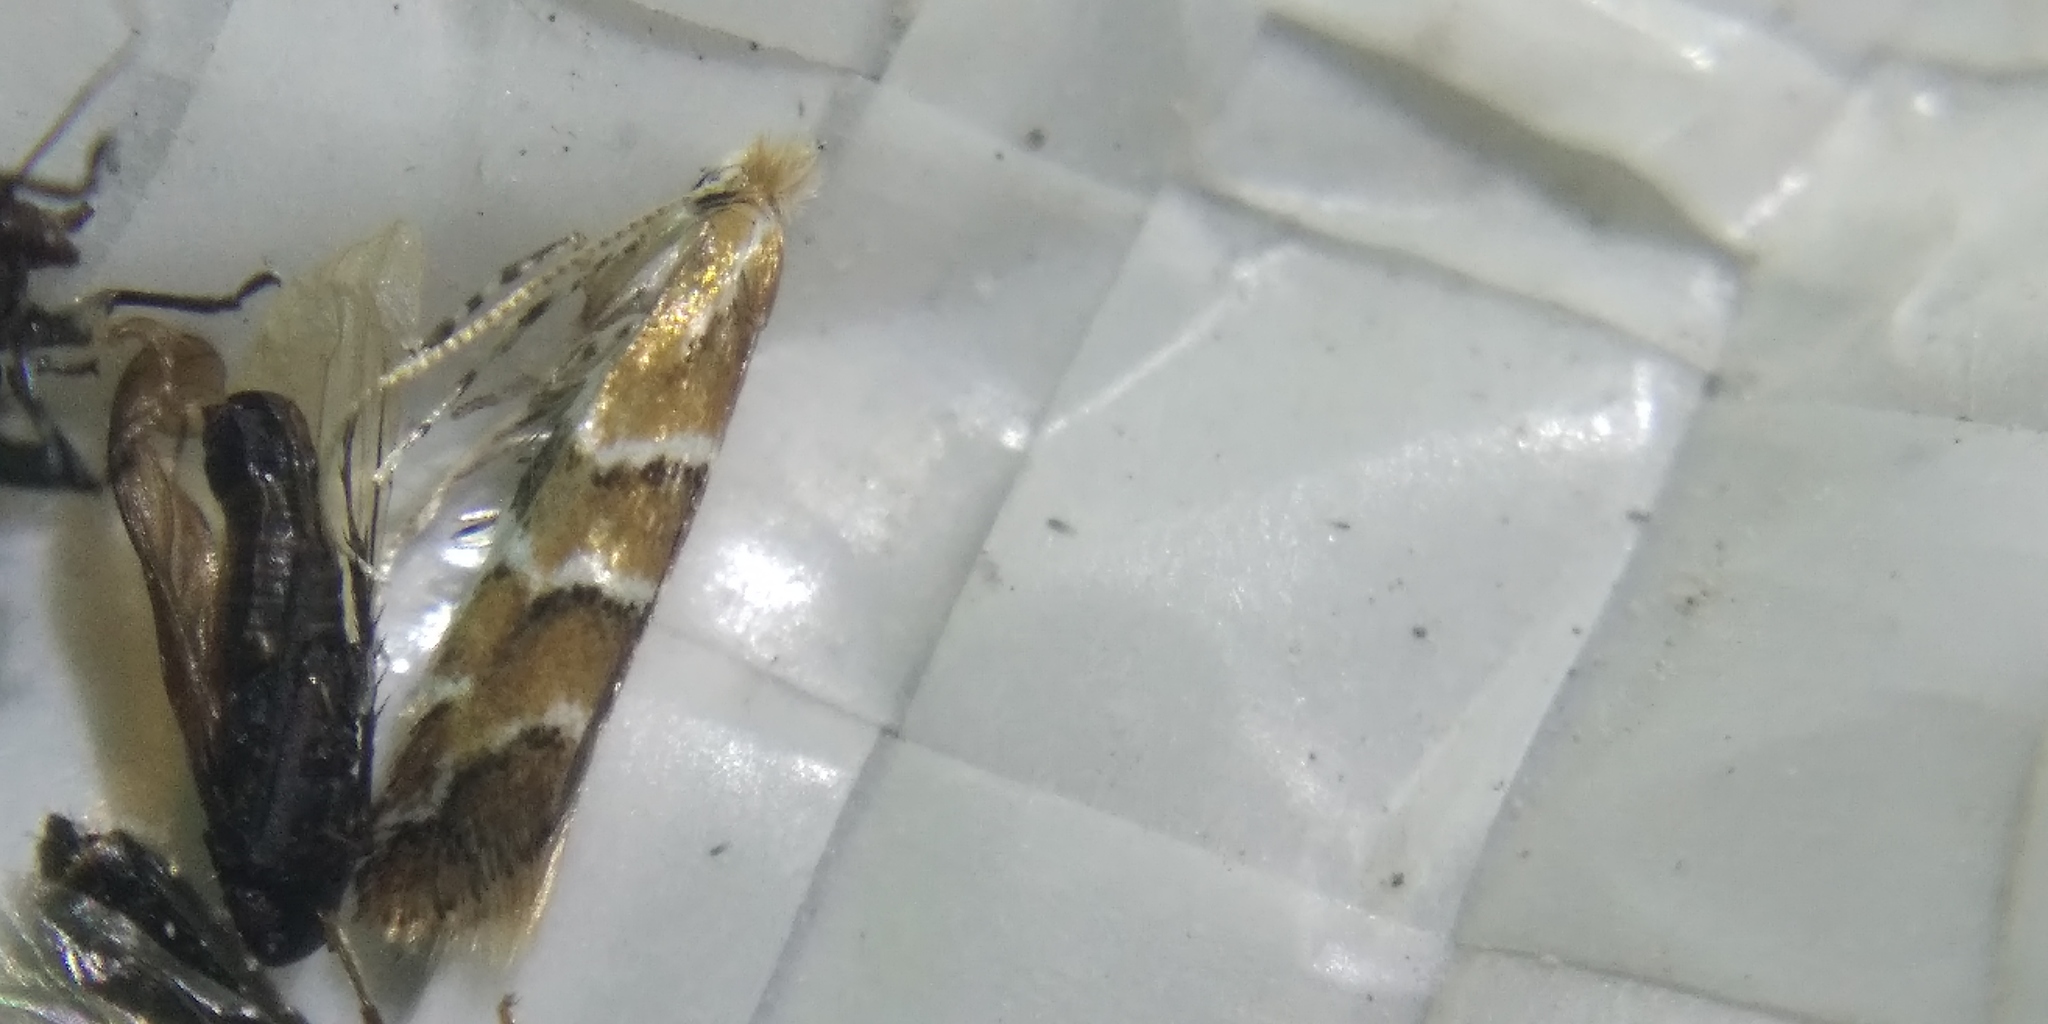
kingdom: Animalia
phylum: Arthropoda
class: Insecta
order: Lepidoptera
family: Gracillariidae
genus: Cameraria
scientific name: Cameraria ohridella
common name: Horse-chestnut leaf-miner
